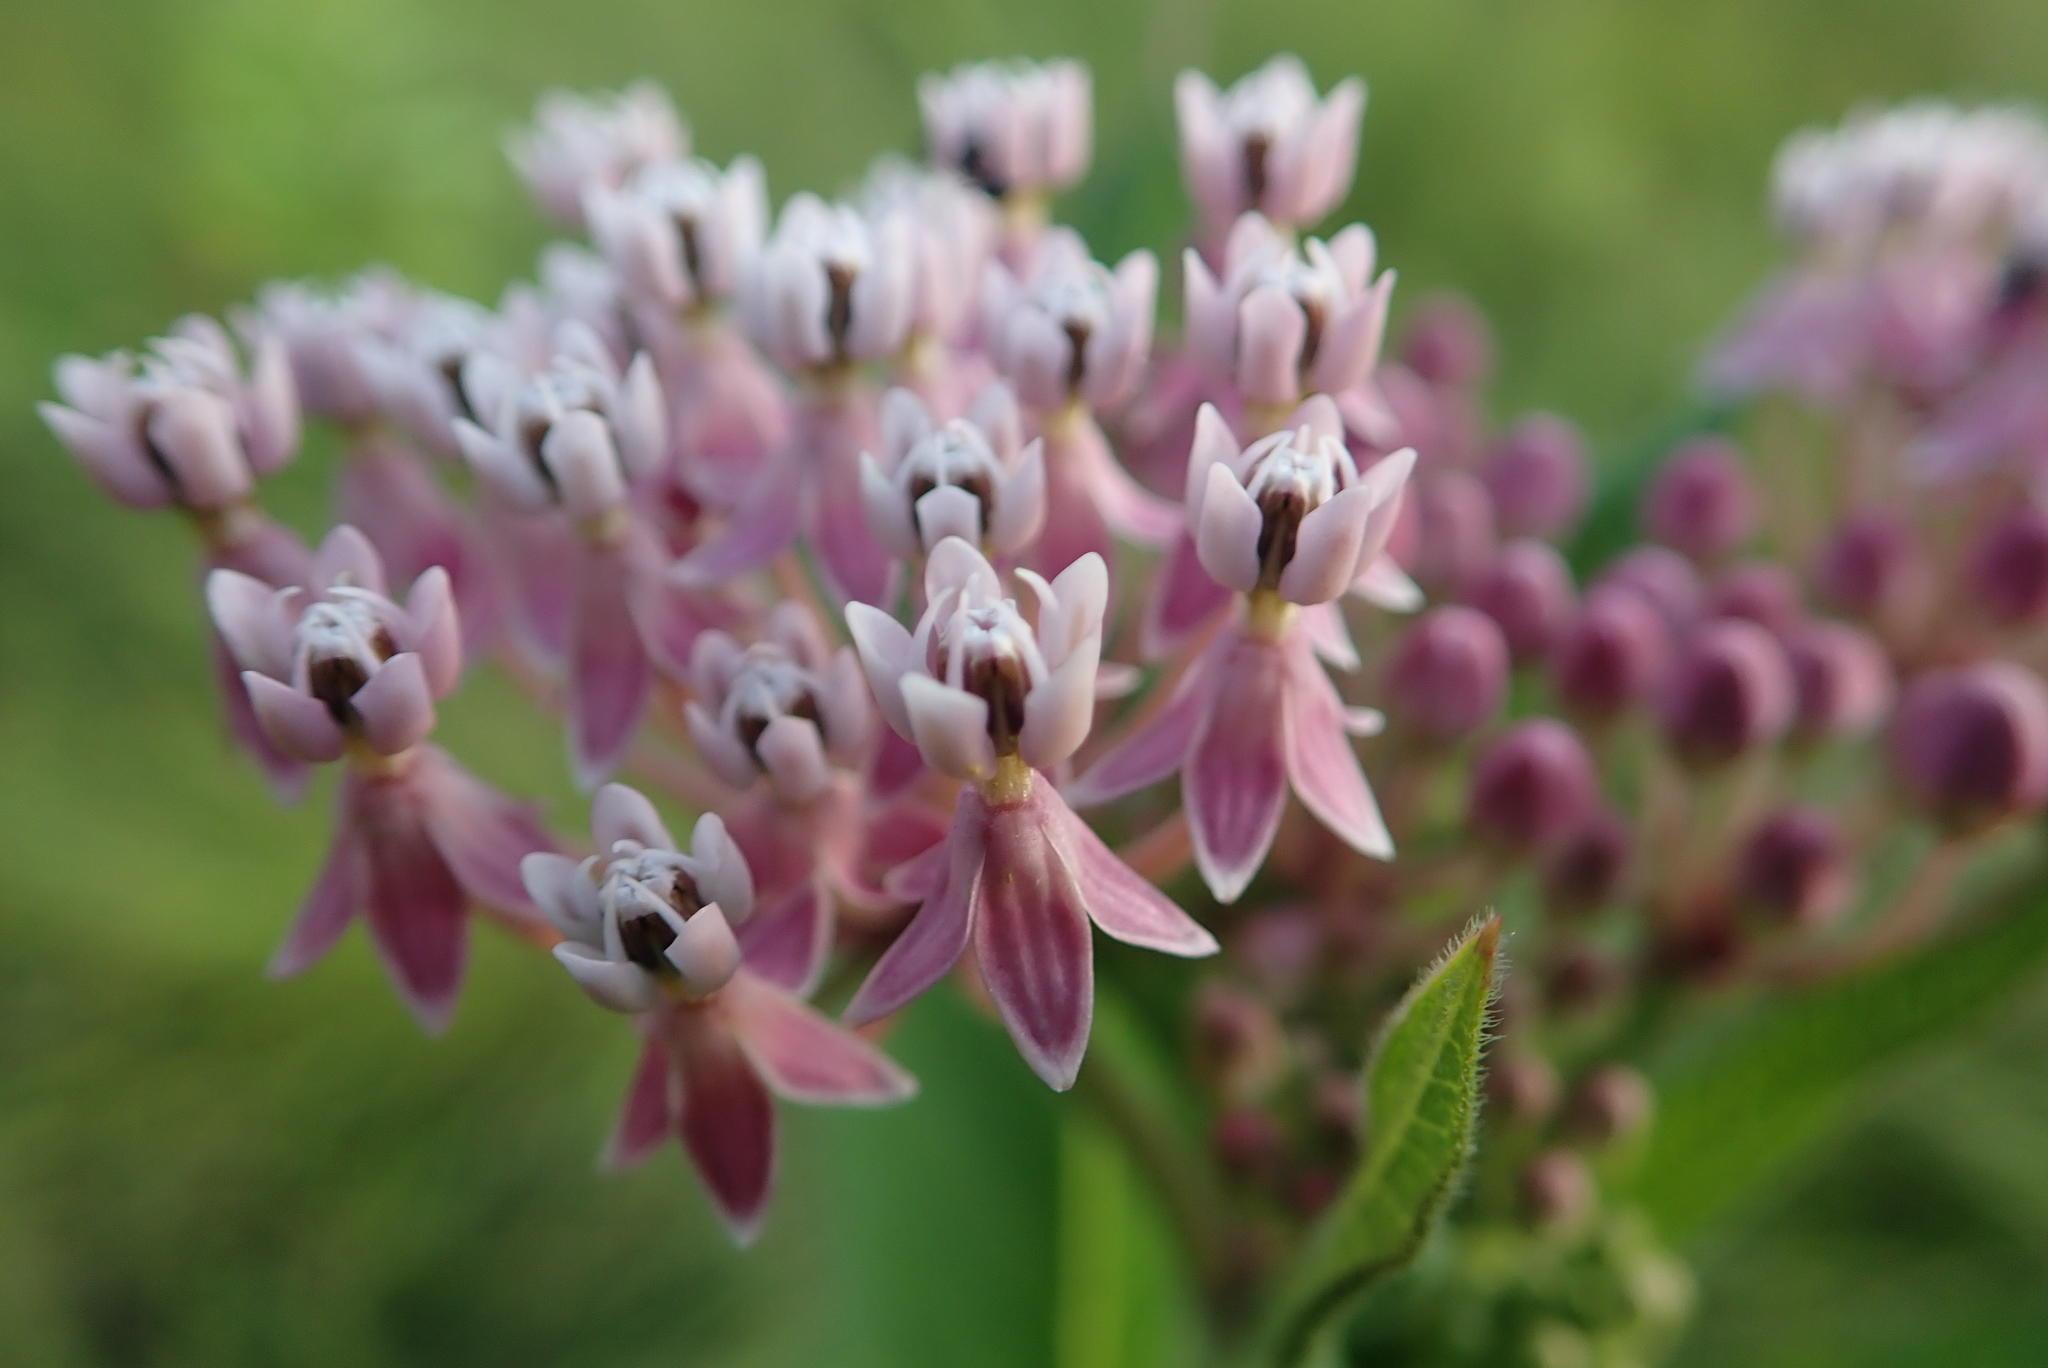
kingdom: Plantae
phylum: Tracheophyta
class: Magnoliopsida
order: Gentianales
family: Apocynaceae
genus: Asclepias
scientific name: Asclepias incarnata
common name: Swamp milkweed
